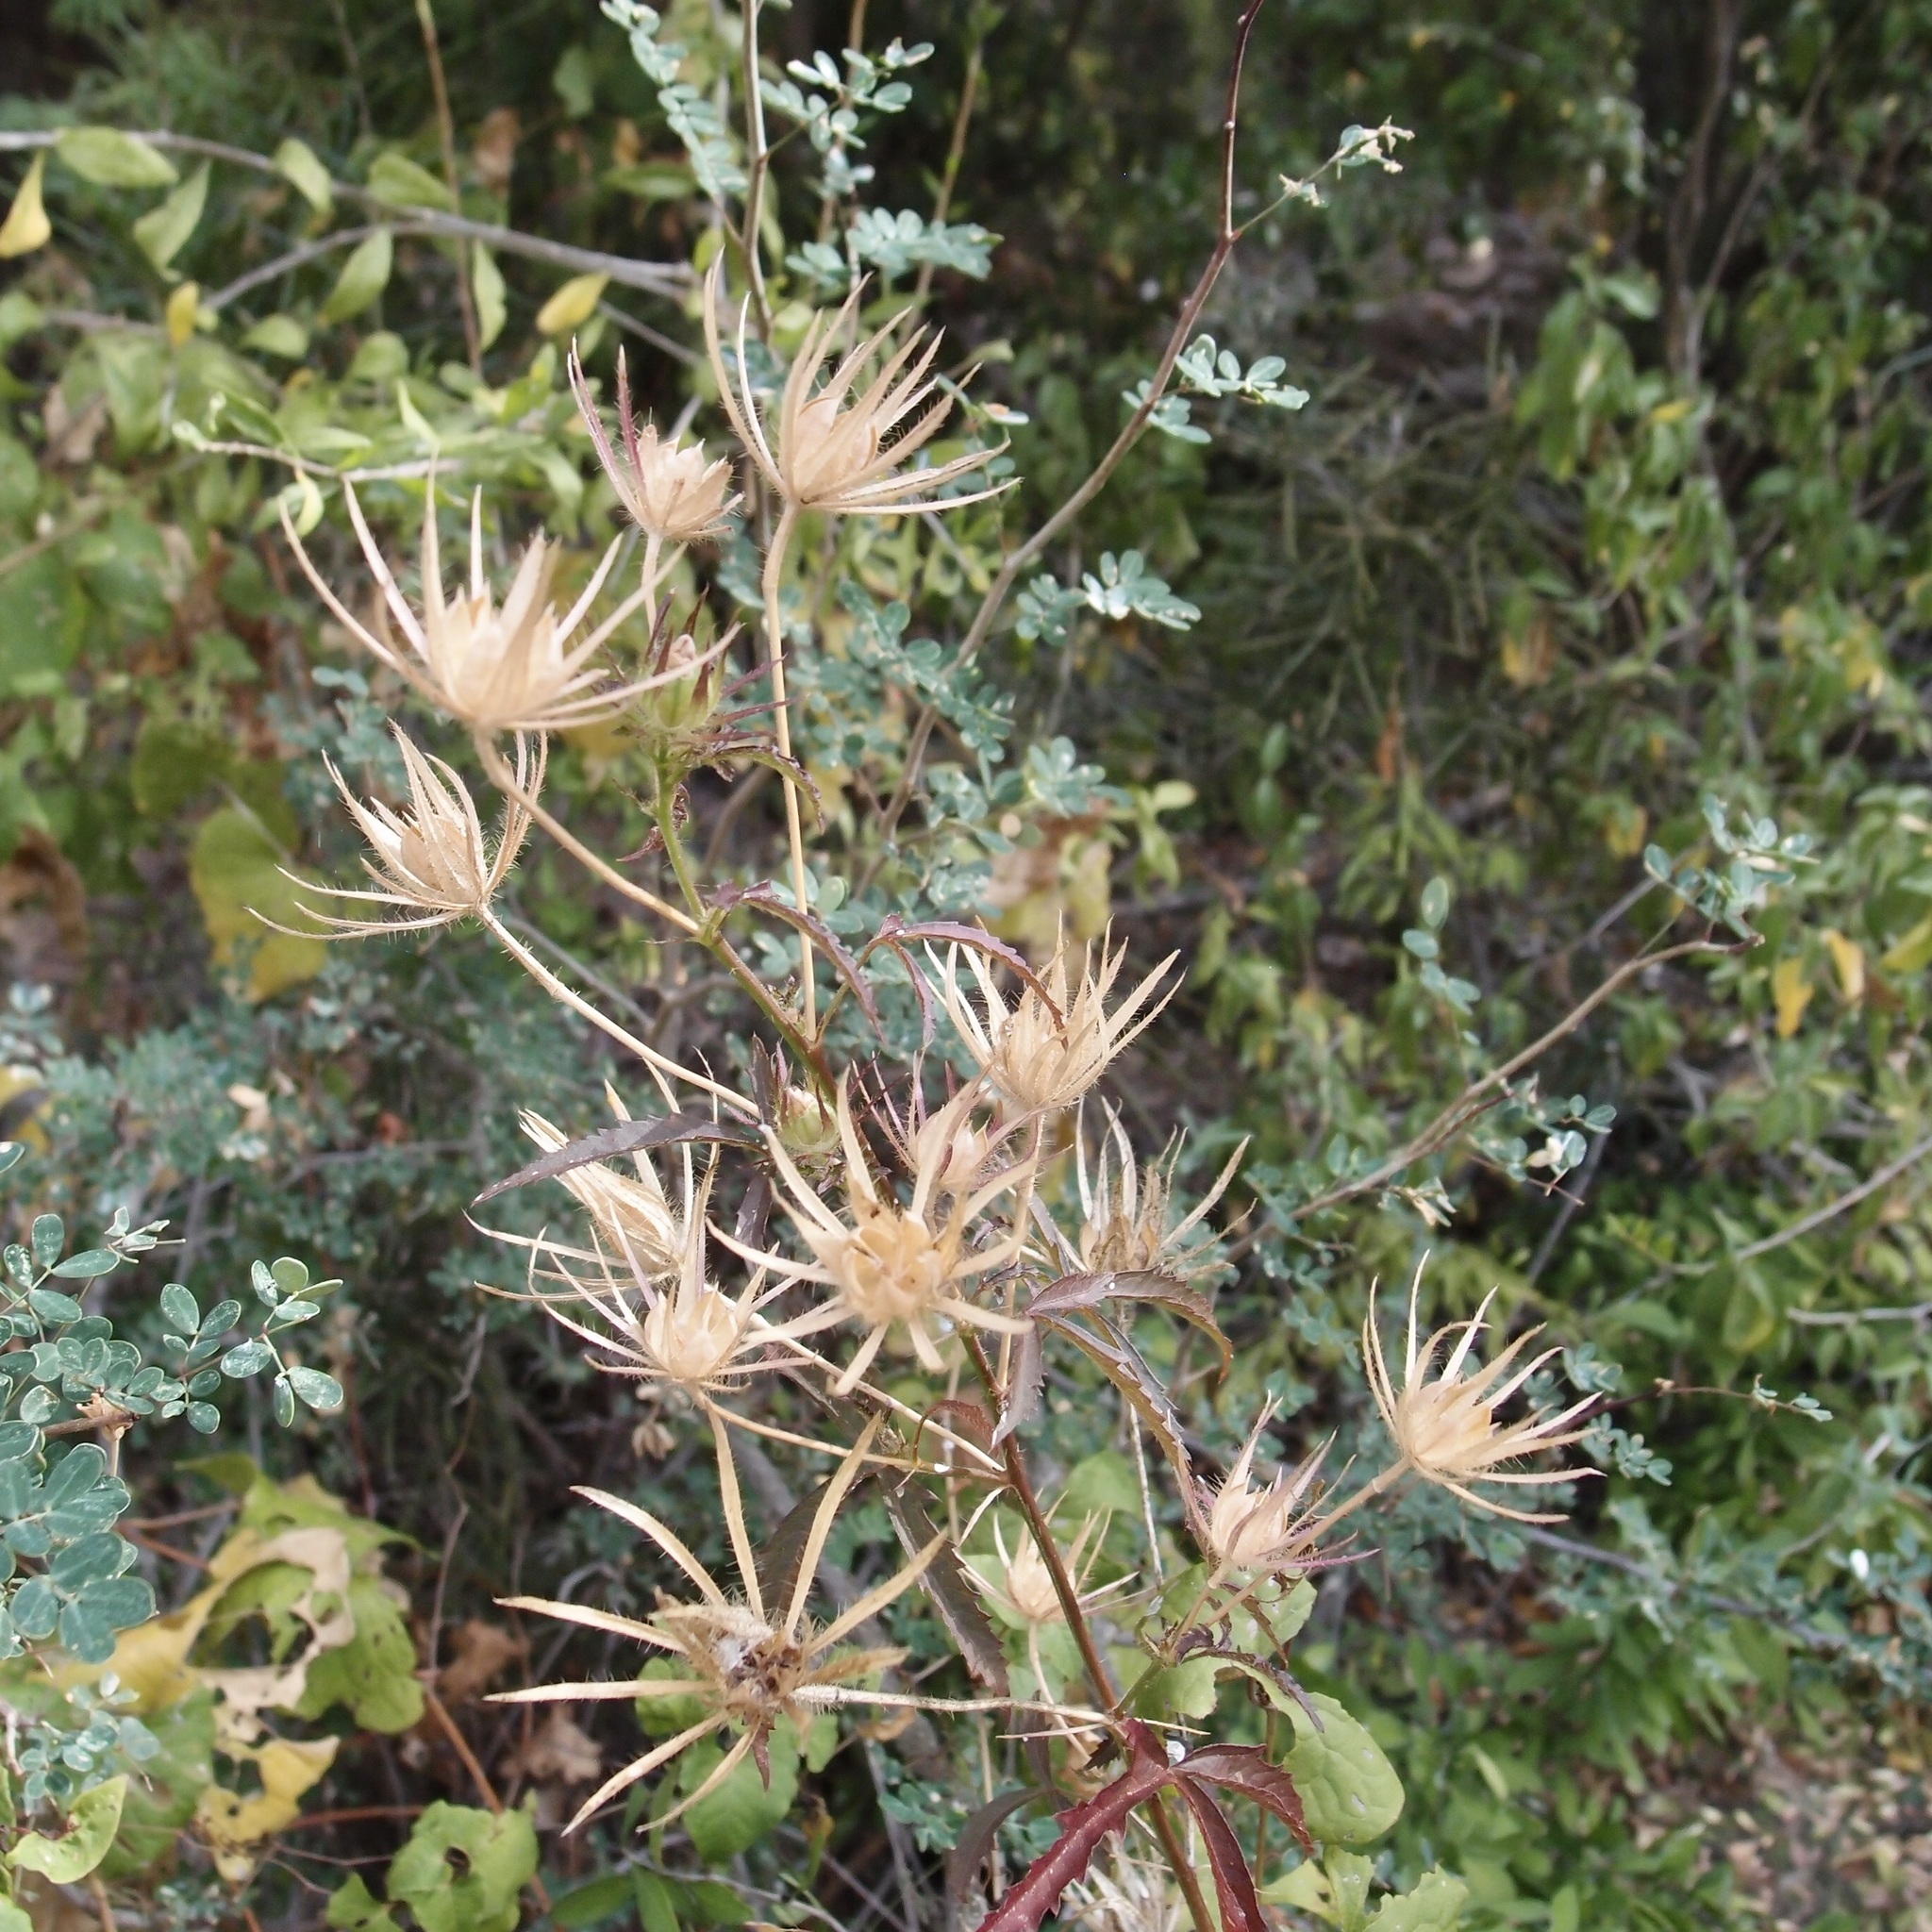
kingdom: Plantae
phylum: Tracheophyta
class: Magnoliopsida
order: Malvales
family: Malvaceae
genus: Hibiscus
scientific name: Hibiscus biseptus
